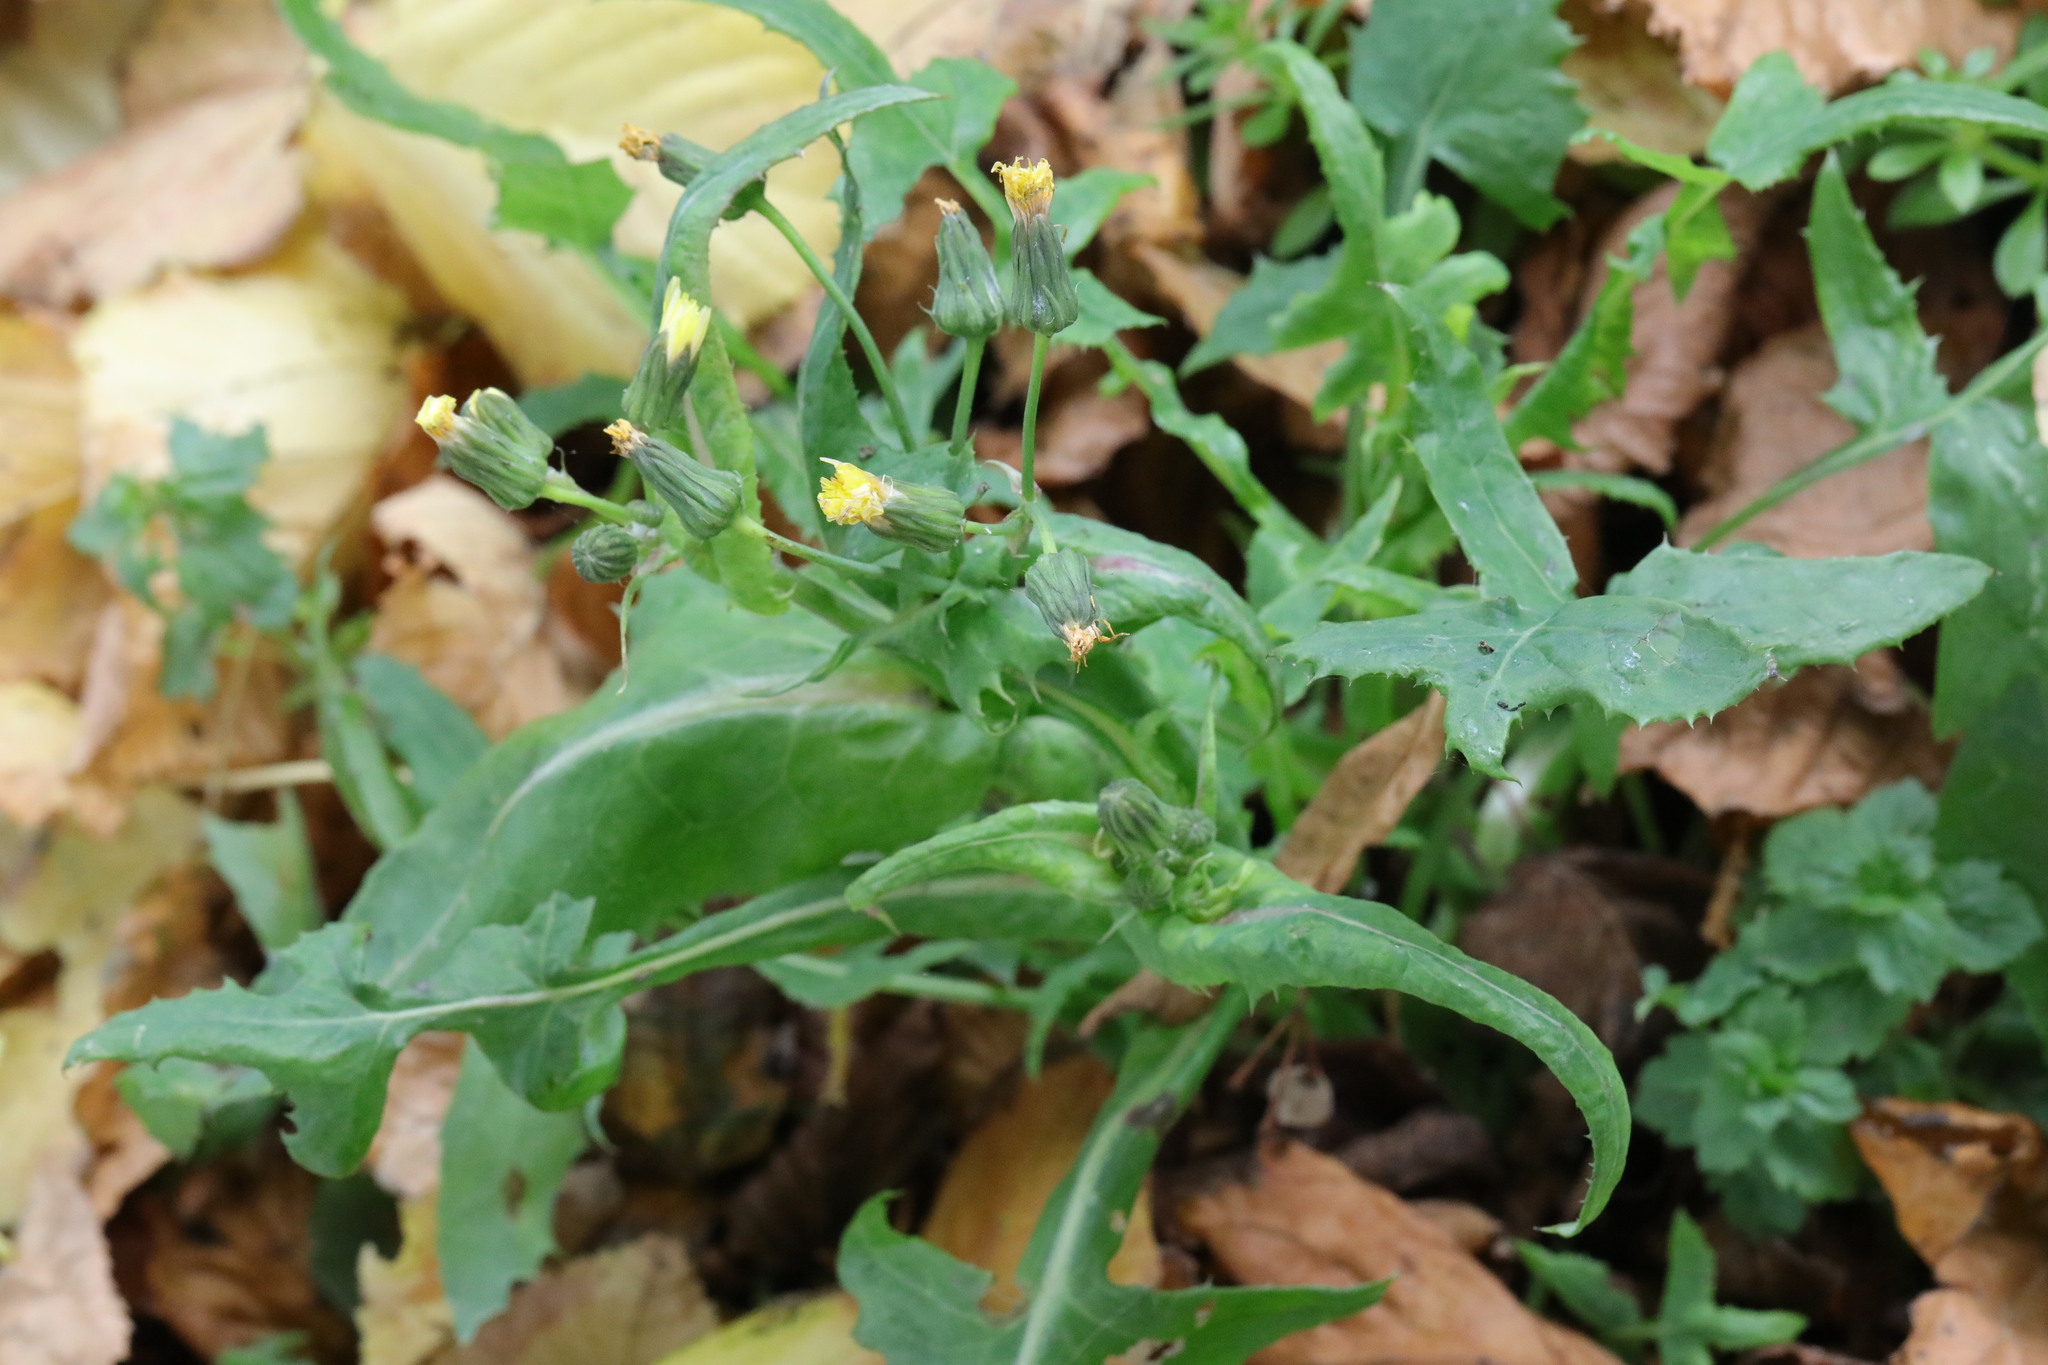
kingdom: Plantae
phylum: Tracheophyta
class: Magnoliopsida
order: Asterales
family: Asteraceae
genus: Sonchus
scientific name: Sonchus oleraceus
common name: Common sowthistle
